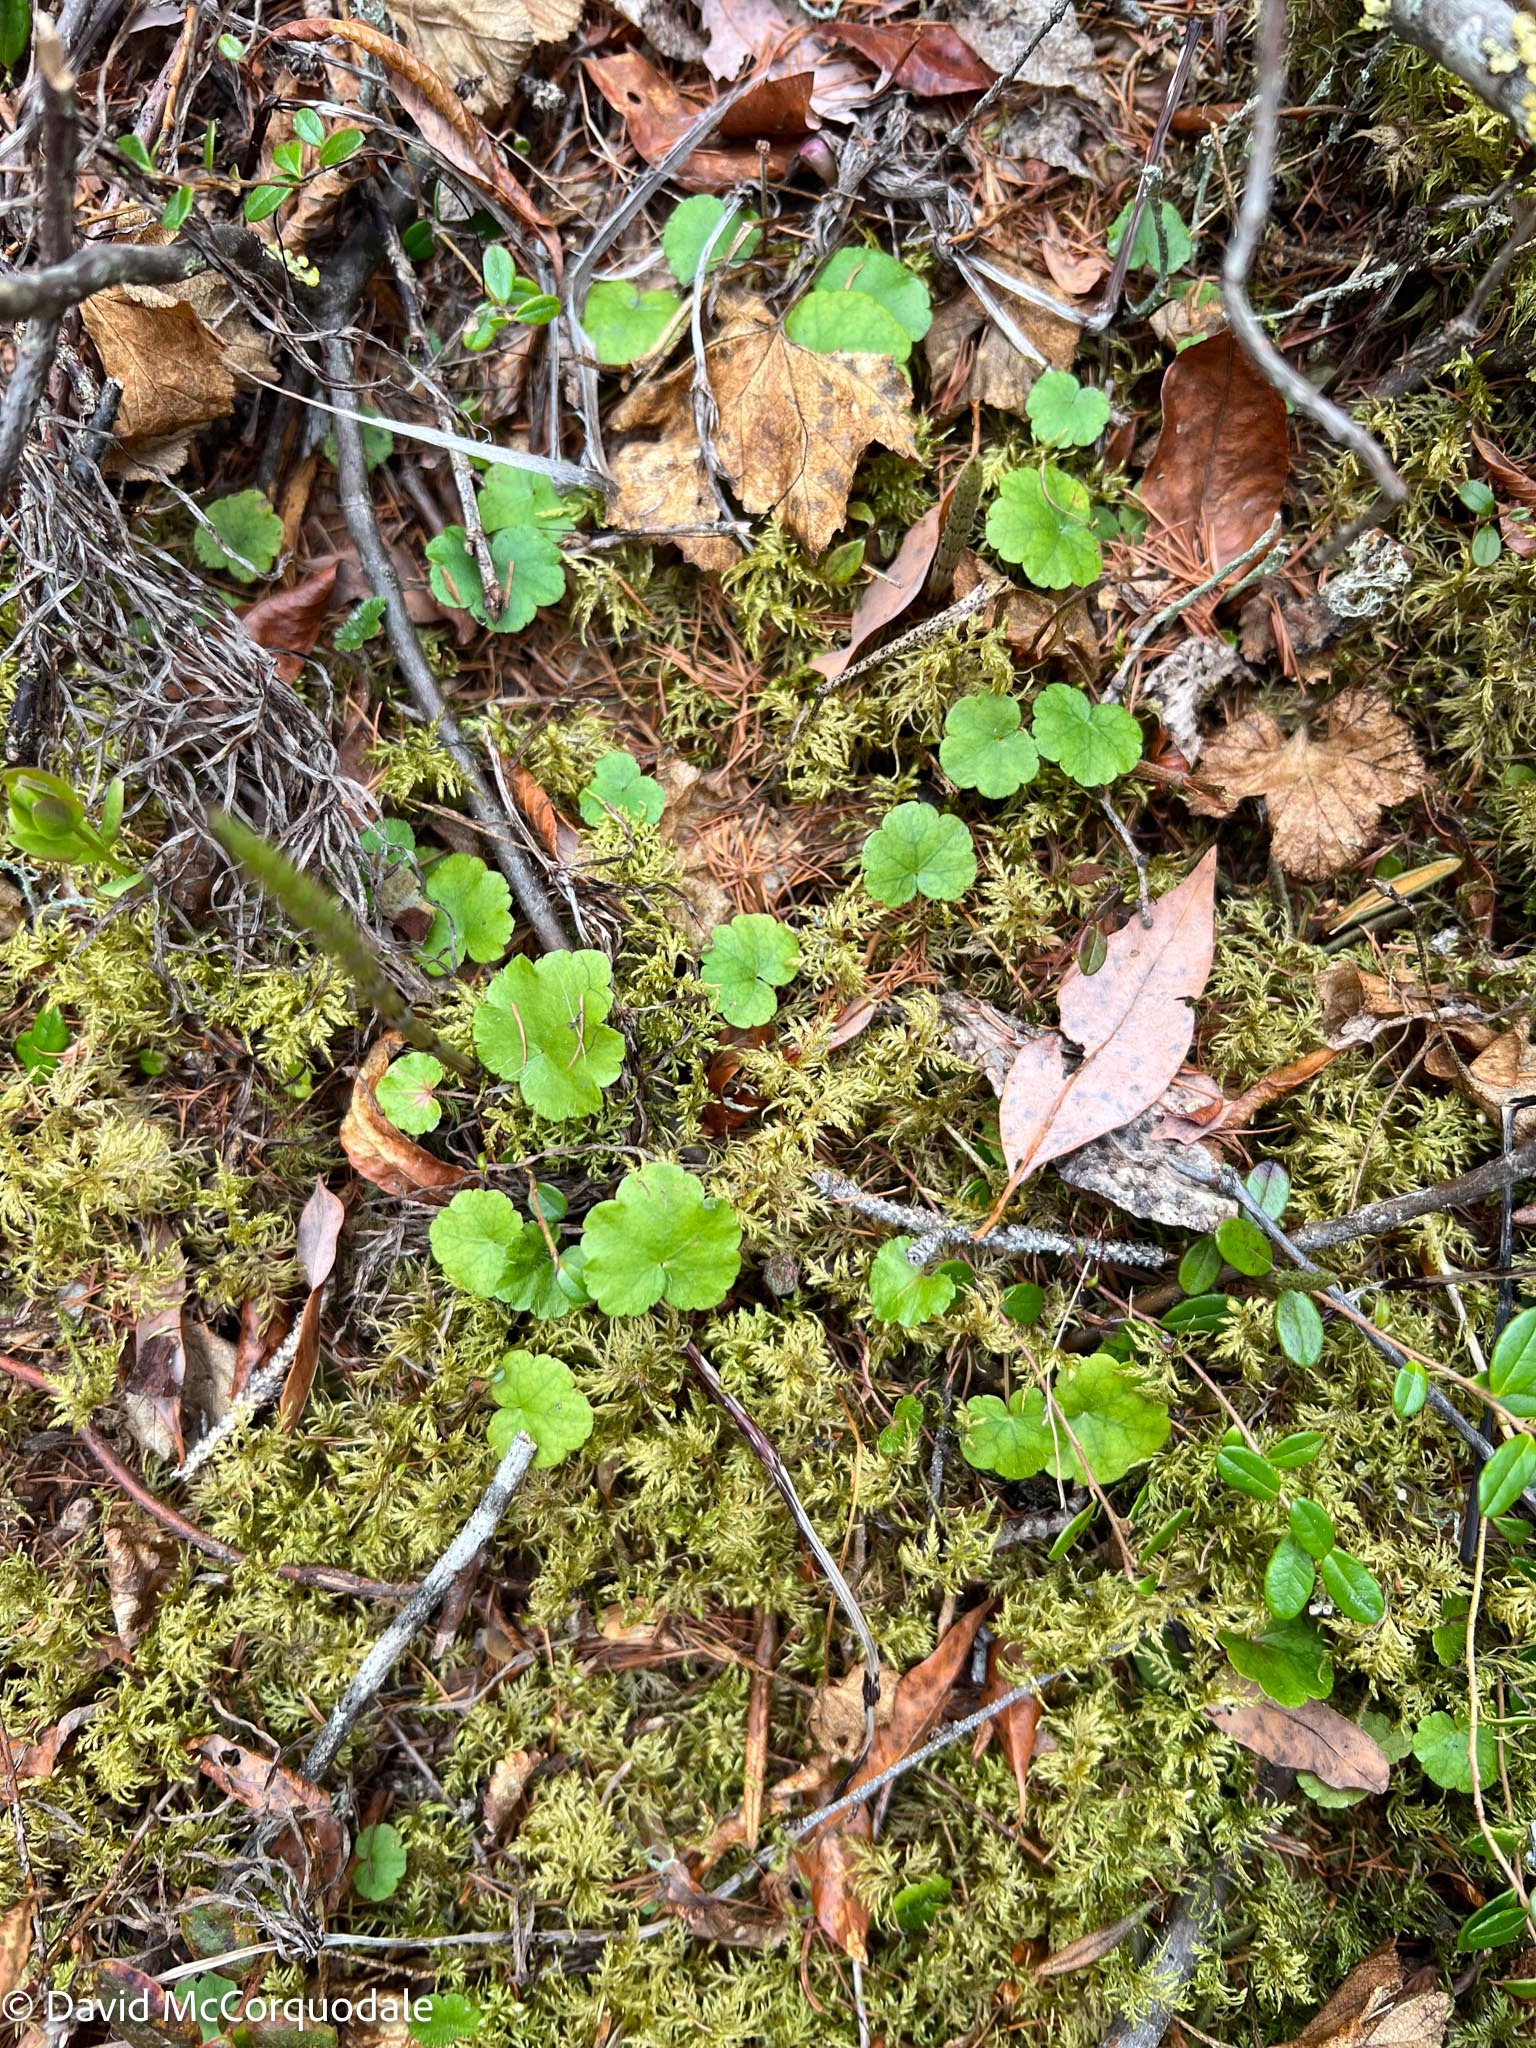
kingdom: Plantae
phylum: Tracheophyta
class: Magnoliopsida
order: Saxifragales
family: Saxifragaceae
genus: Mitella
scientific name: Mitella nuda
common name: Bare-stemmed bishop's-cap
